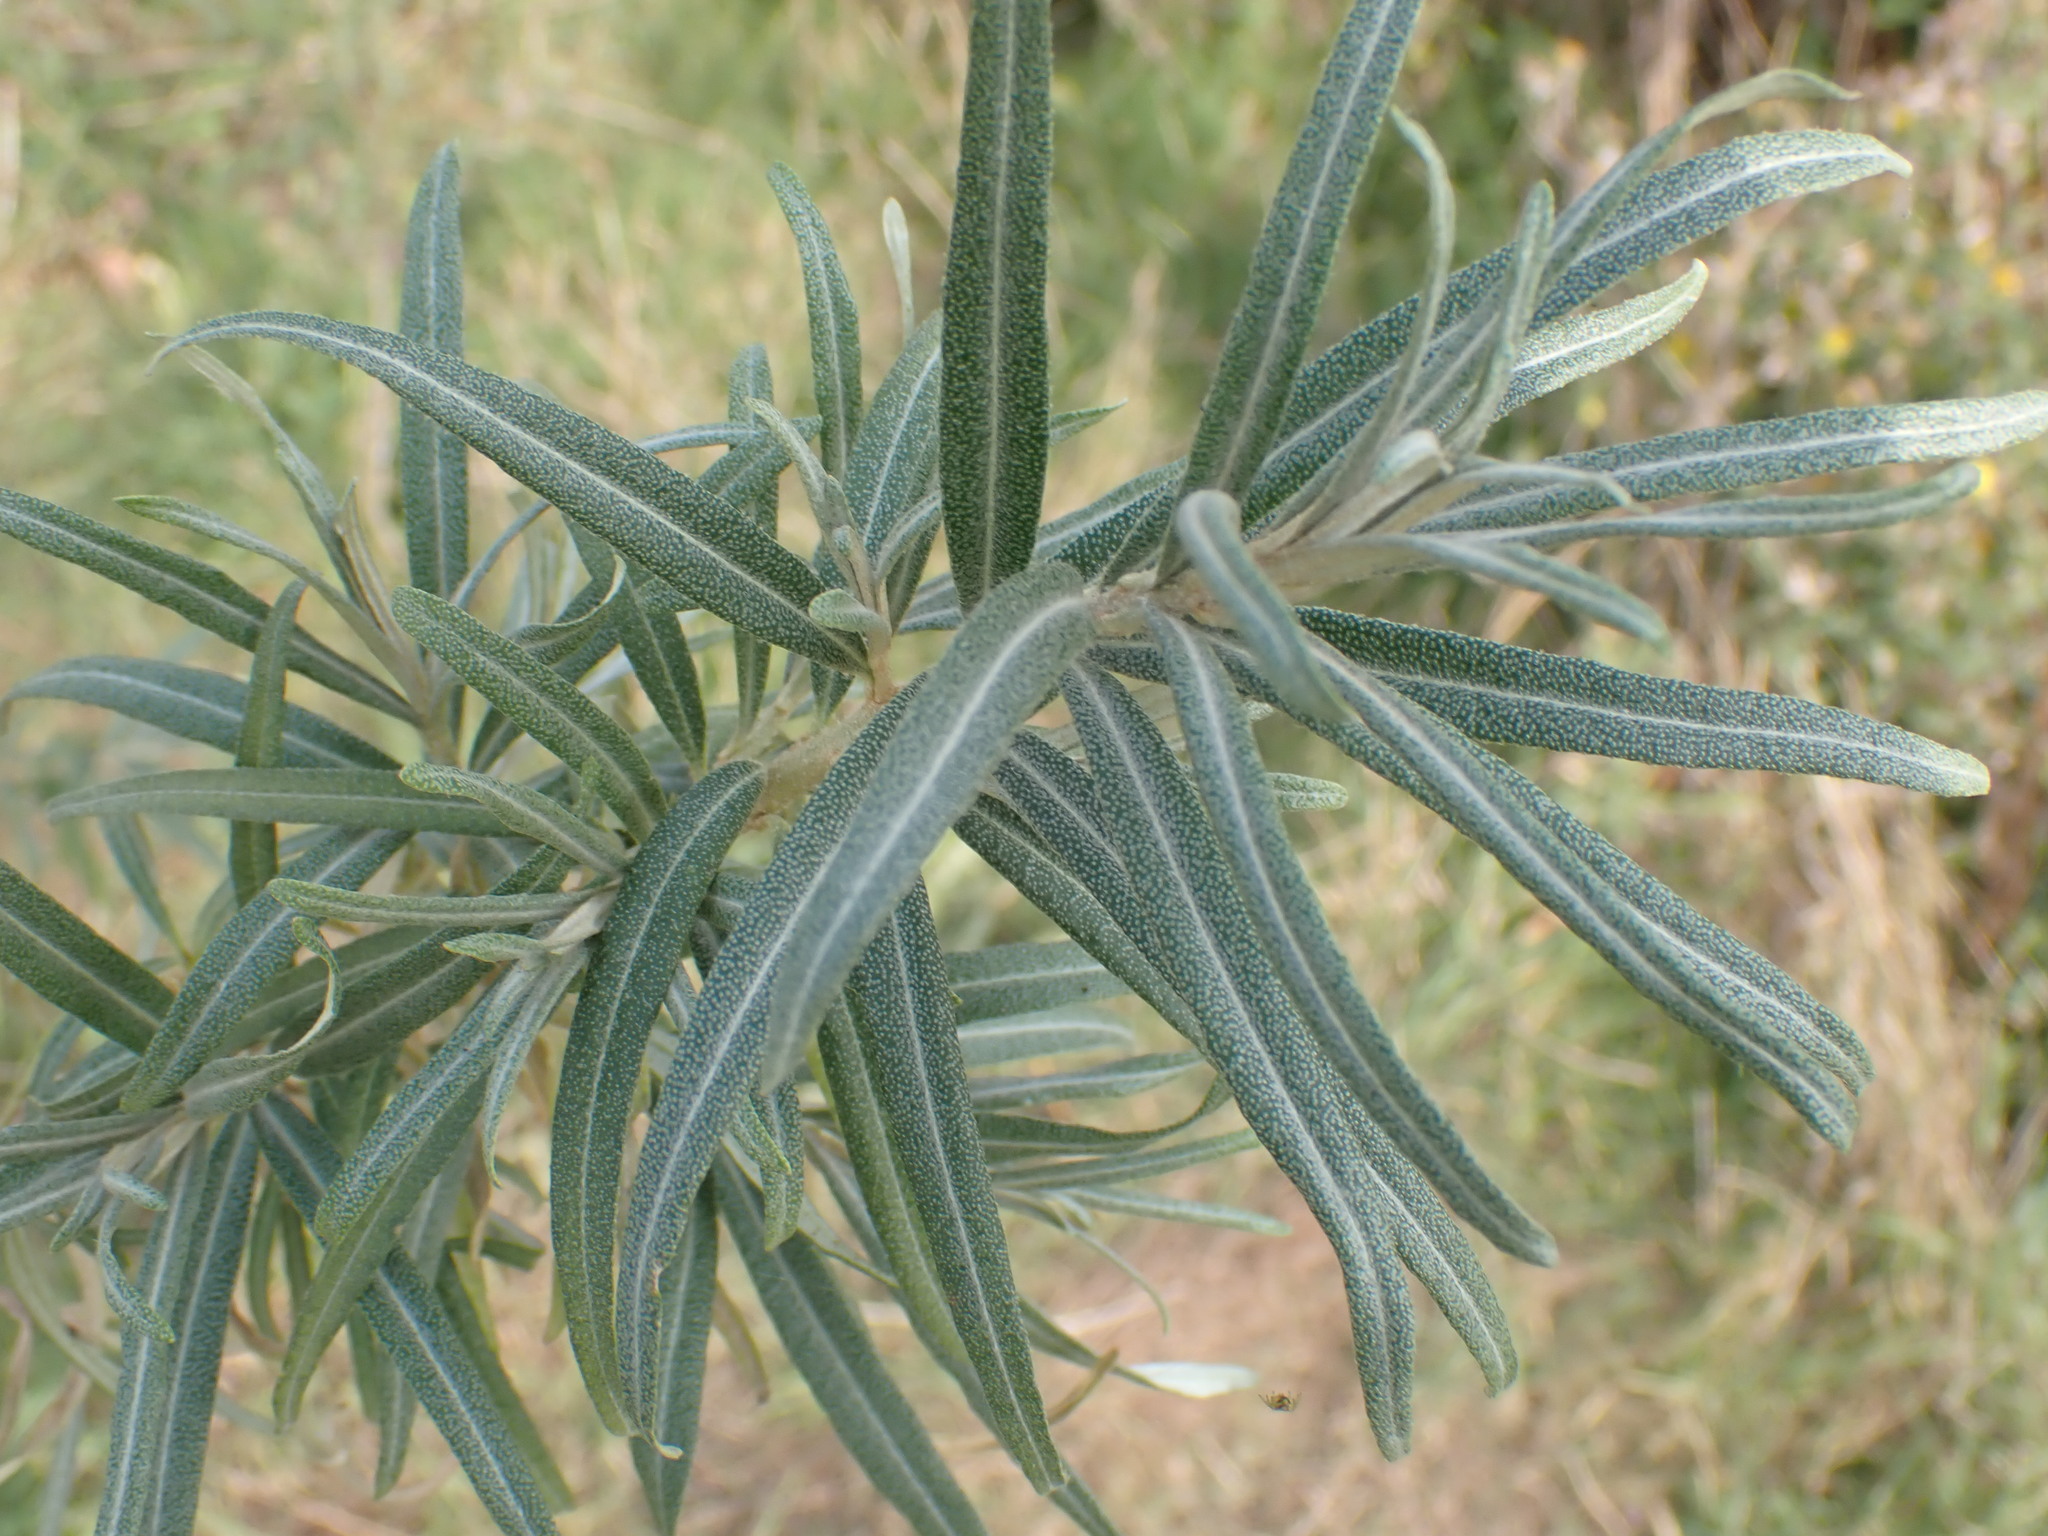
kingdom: Plantae
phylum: Tracheophyta
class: Magnoliopsida
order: Rosales
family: Elaeagnaceae
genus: Hippophae
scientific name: Hippophae rhamnoides
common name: Sea-buckthorn
